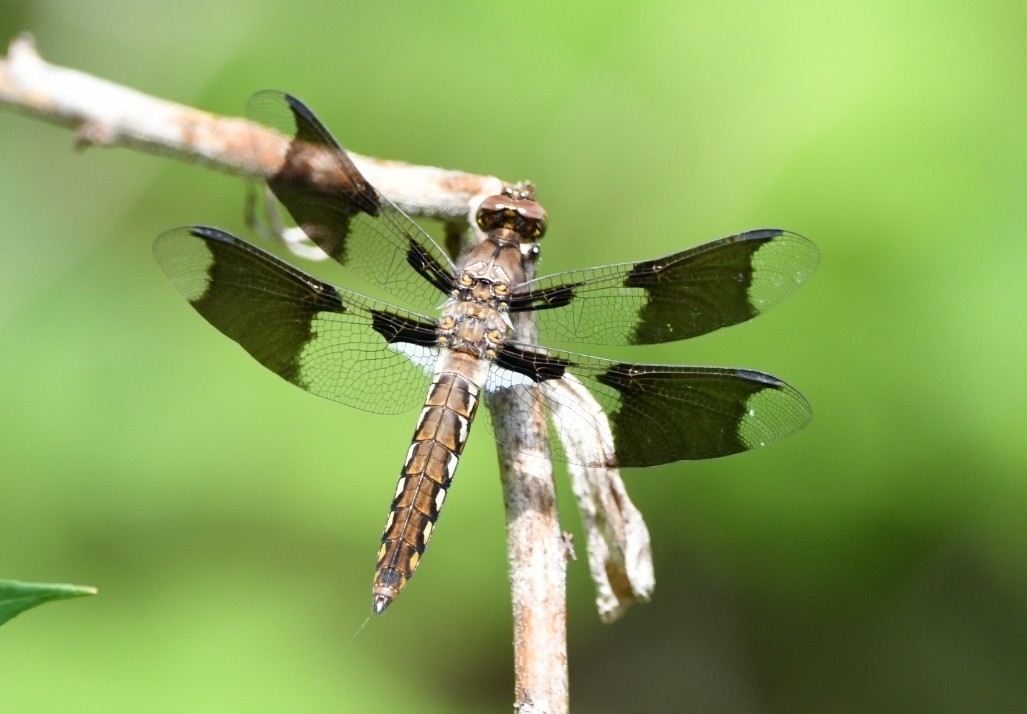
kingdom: Animalia
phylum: Arthropoda
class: Insecta
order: Odonata
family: Libellulidae
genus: Plathemis
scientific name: Plathemis lydia
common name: Common whitetail
